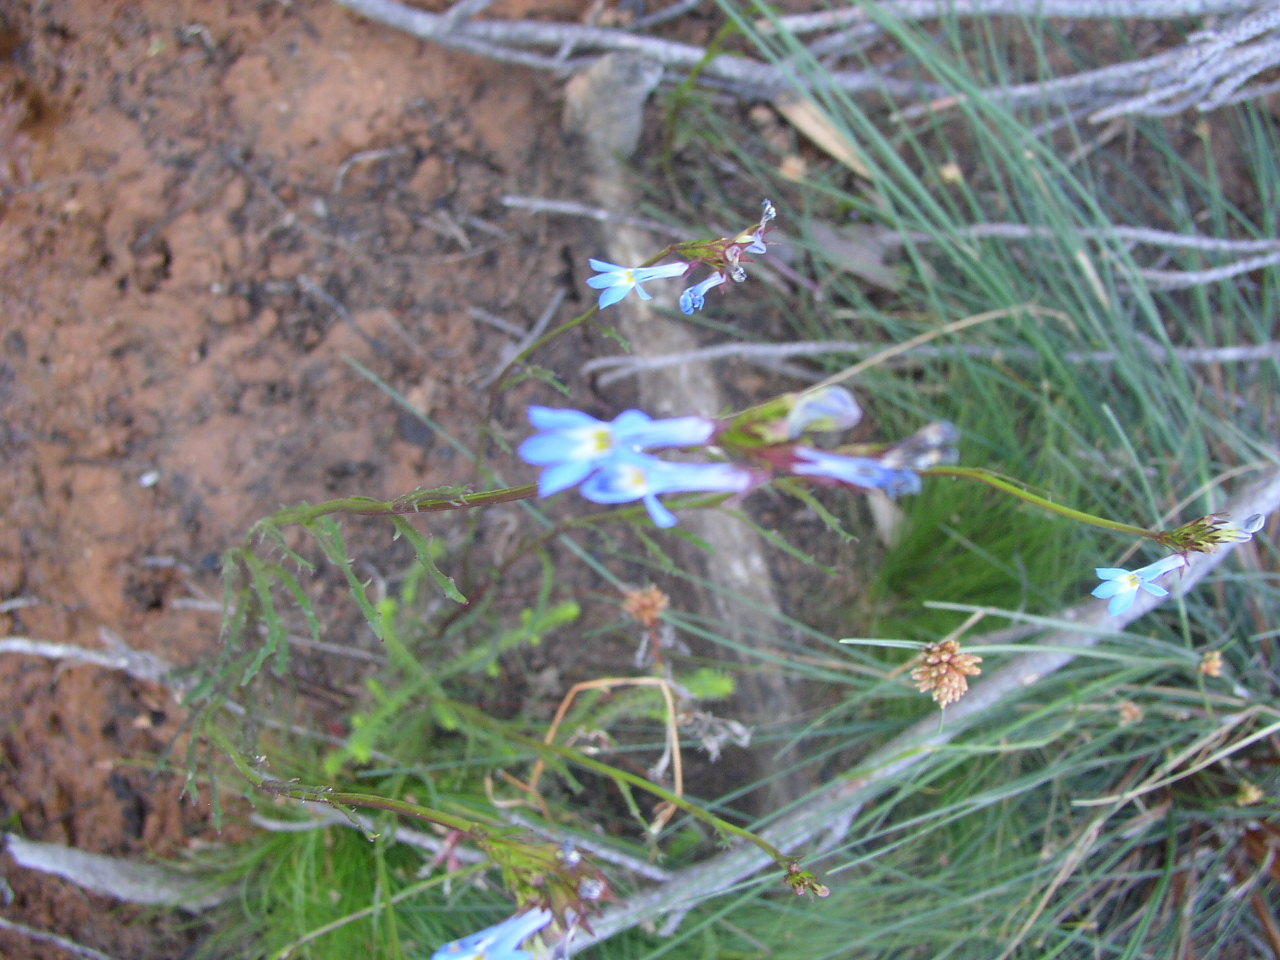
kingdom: Plantae
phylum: Tracheophyta
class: Magnoliopsida
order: Asterales
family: Campanulaceae
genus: Lobelia
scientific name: Lobelia comosa
